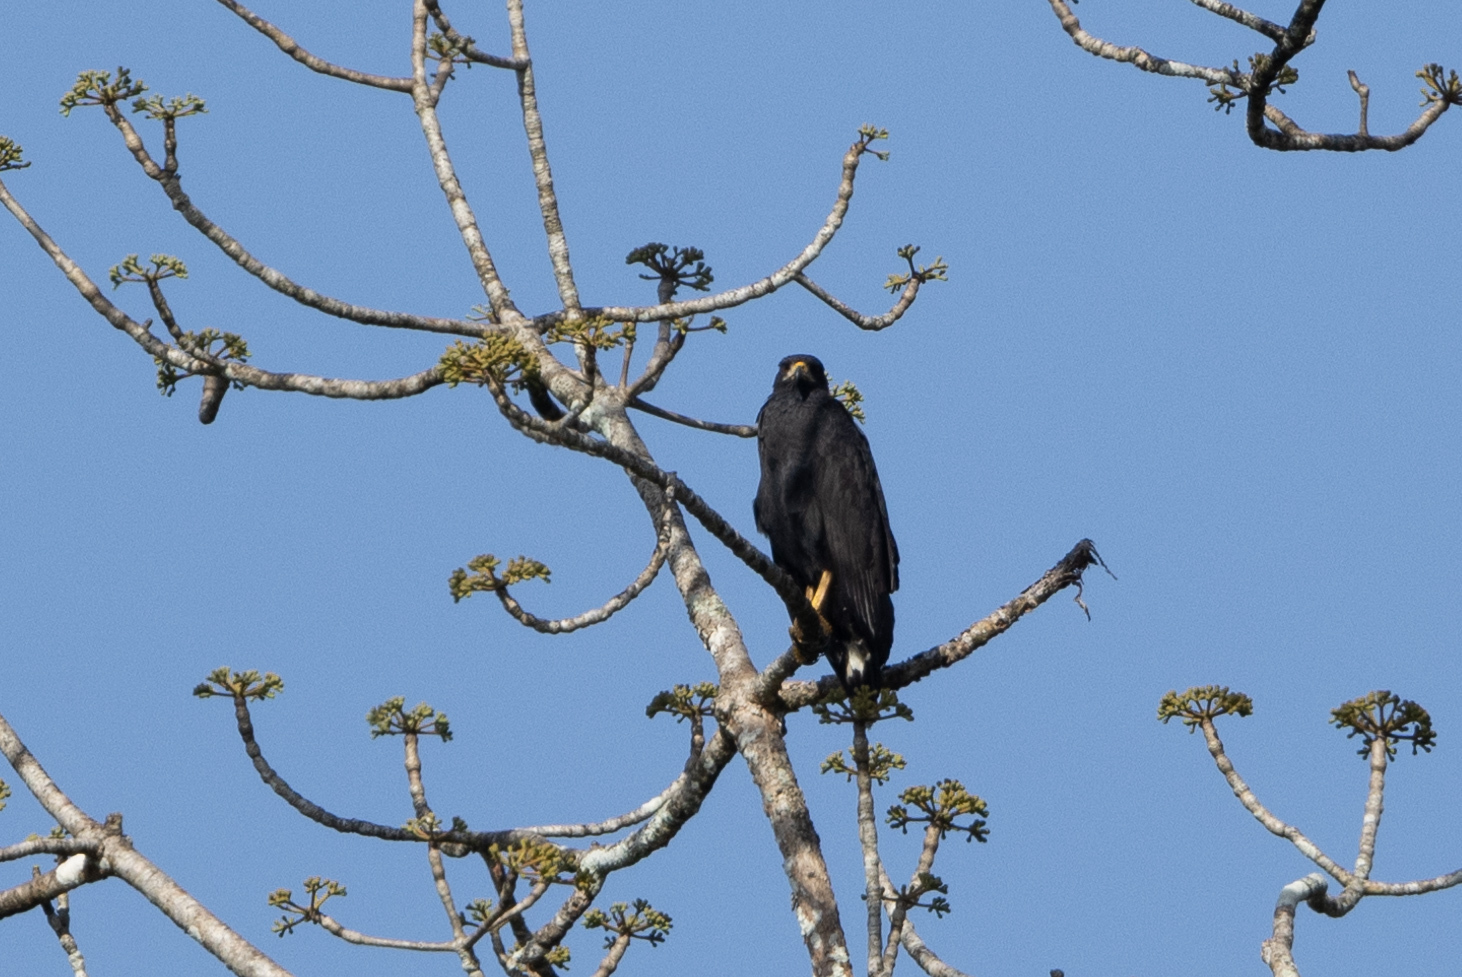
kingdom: Animalia
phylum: Chordata
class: Aves
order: Accipitriformes
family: Accipitridae
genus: Buteogallus
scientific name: Buteogallus anthracinus
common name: Common black hawk
